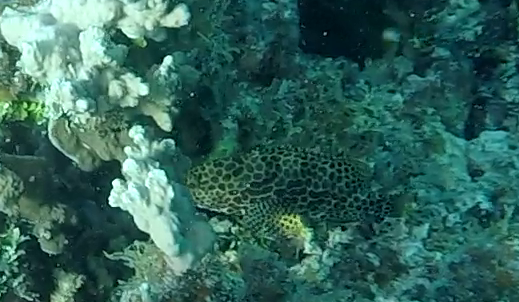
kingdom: Animalia
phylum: Chordata
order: Perciformes
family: Serranidae
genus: Epinephelus
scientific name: Epinephelus merra
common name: Honeycomb grouper
